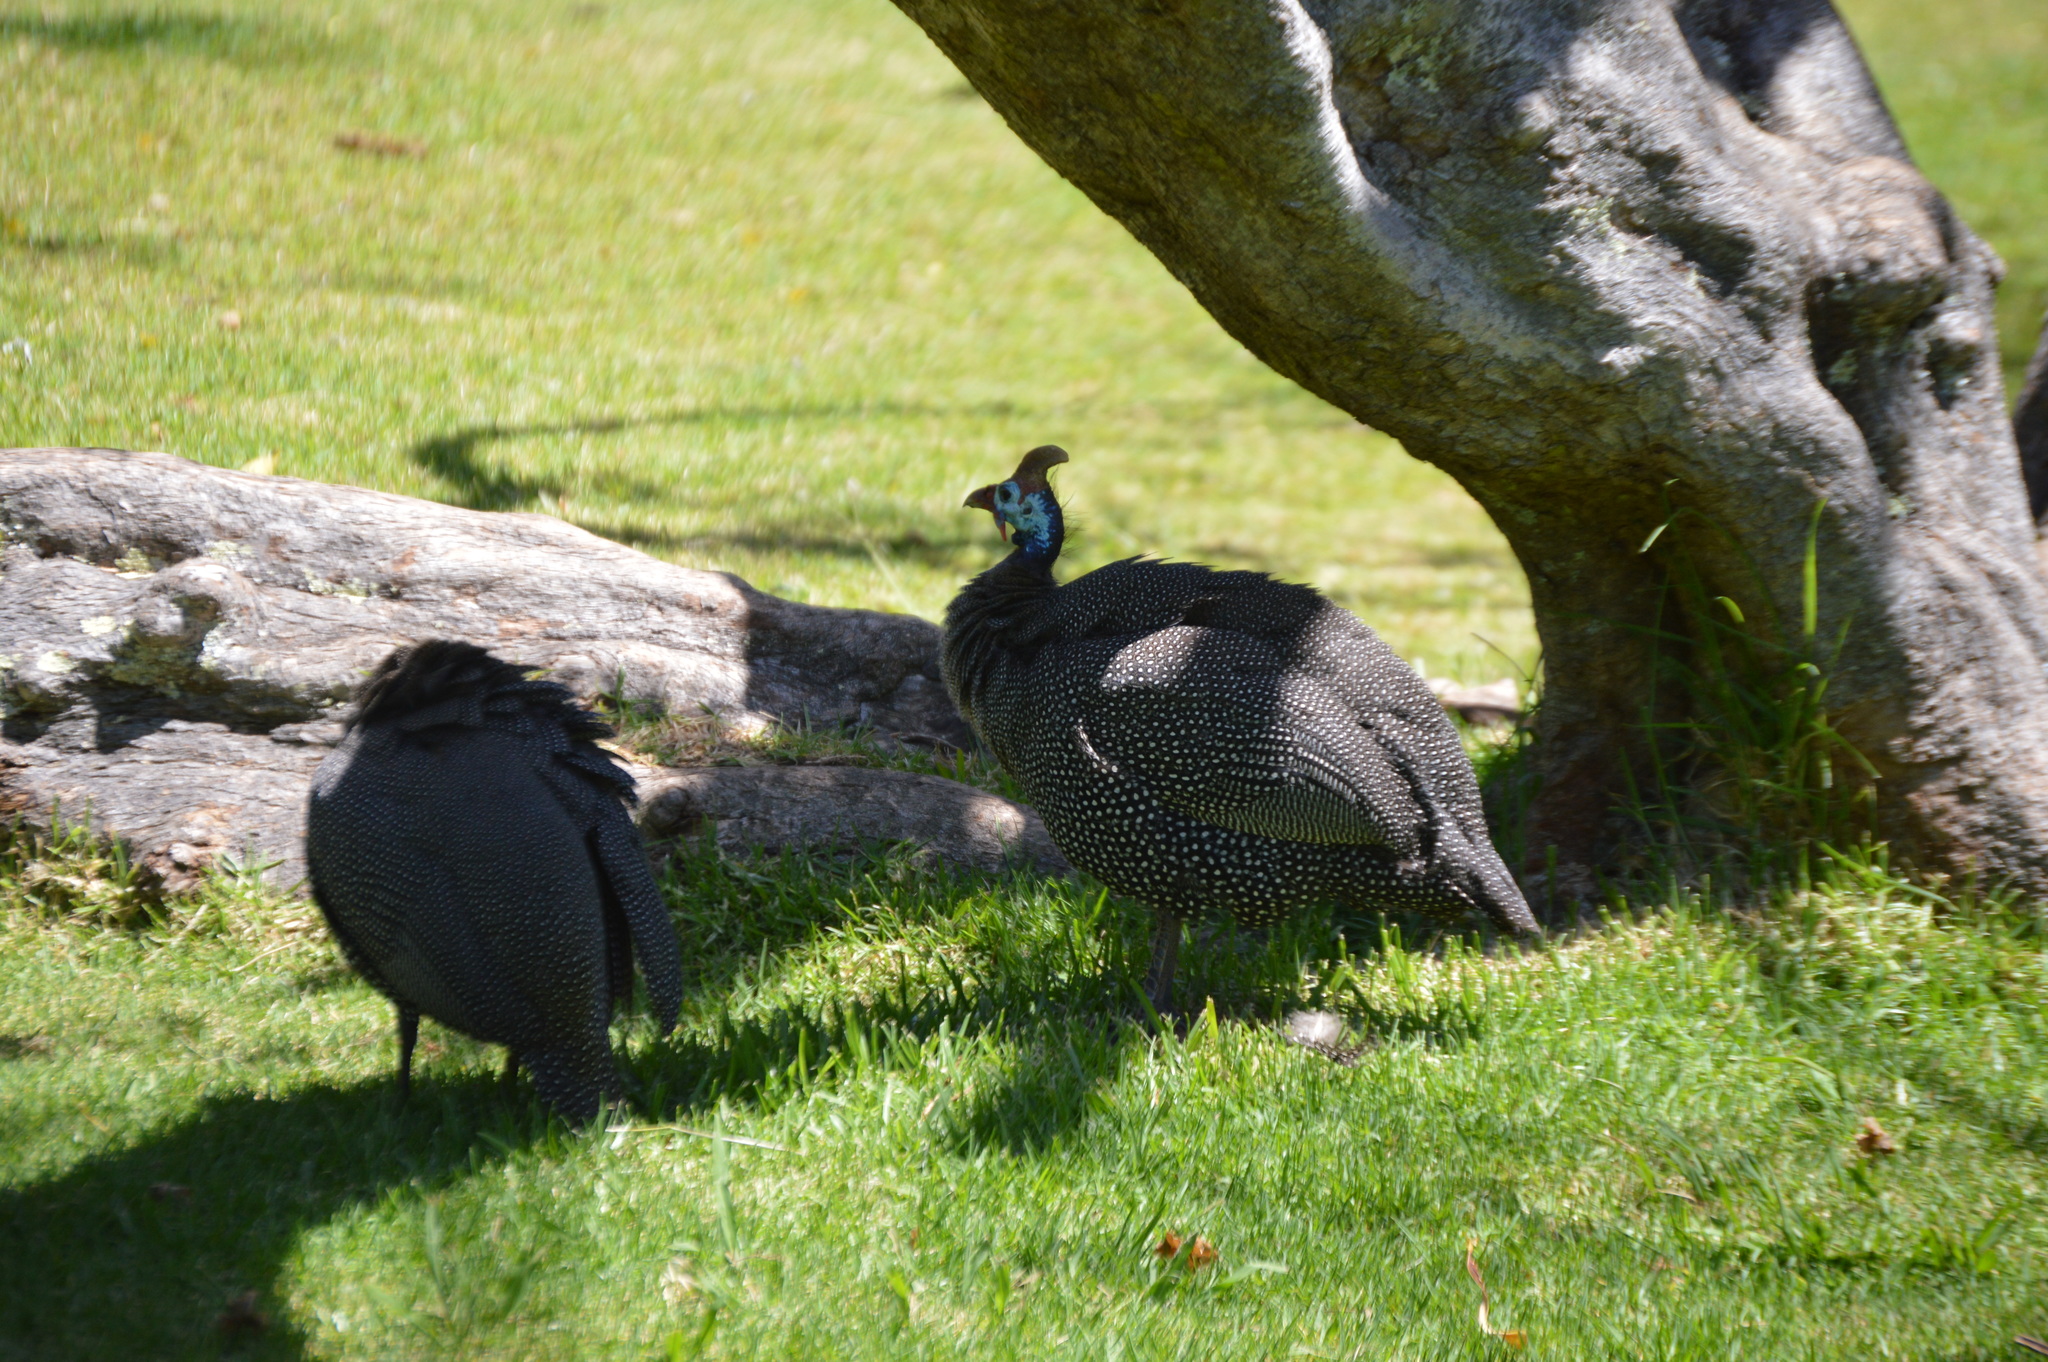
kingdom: Animalia
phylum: Chordata
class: Aves
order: Galliformes
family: Numididae
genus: Numida
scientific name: Numida meleagris
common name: Helmeted guineafowl
